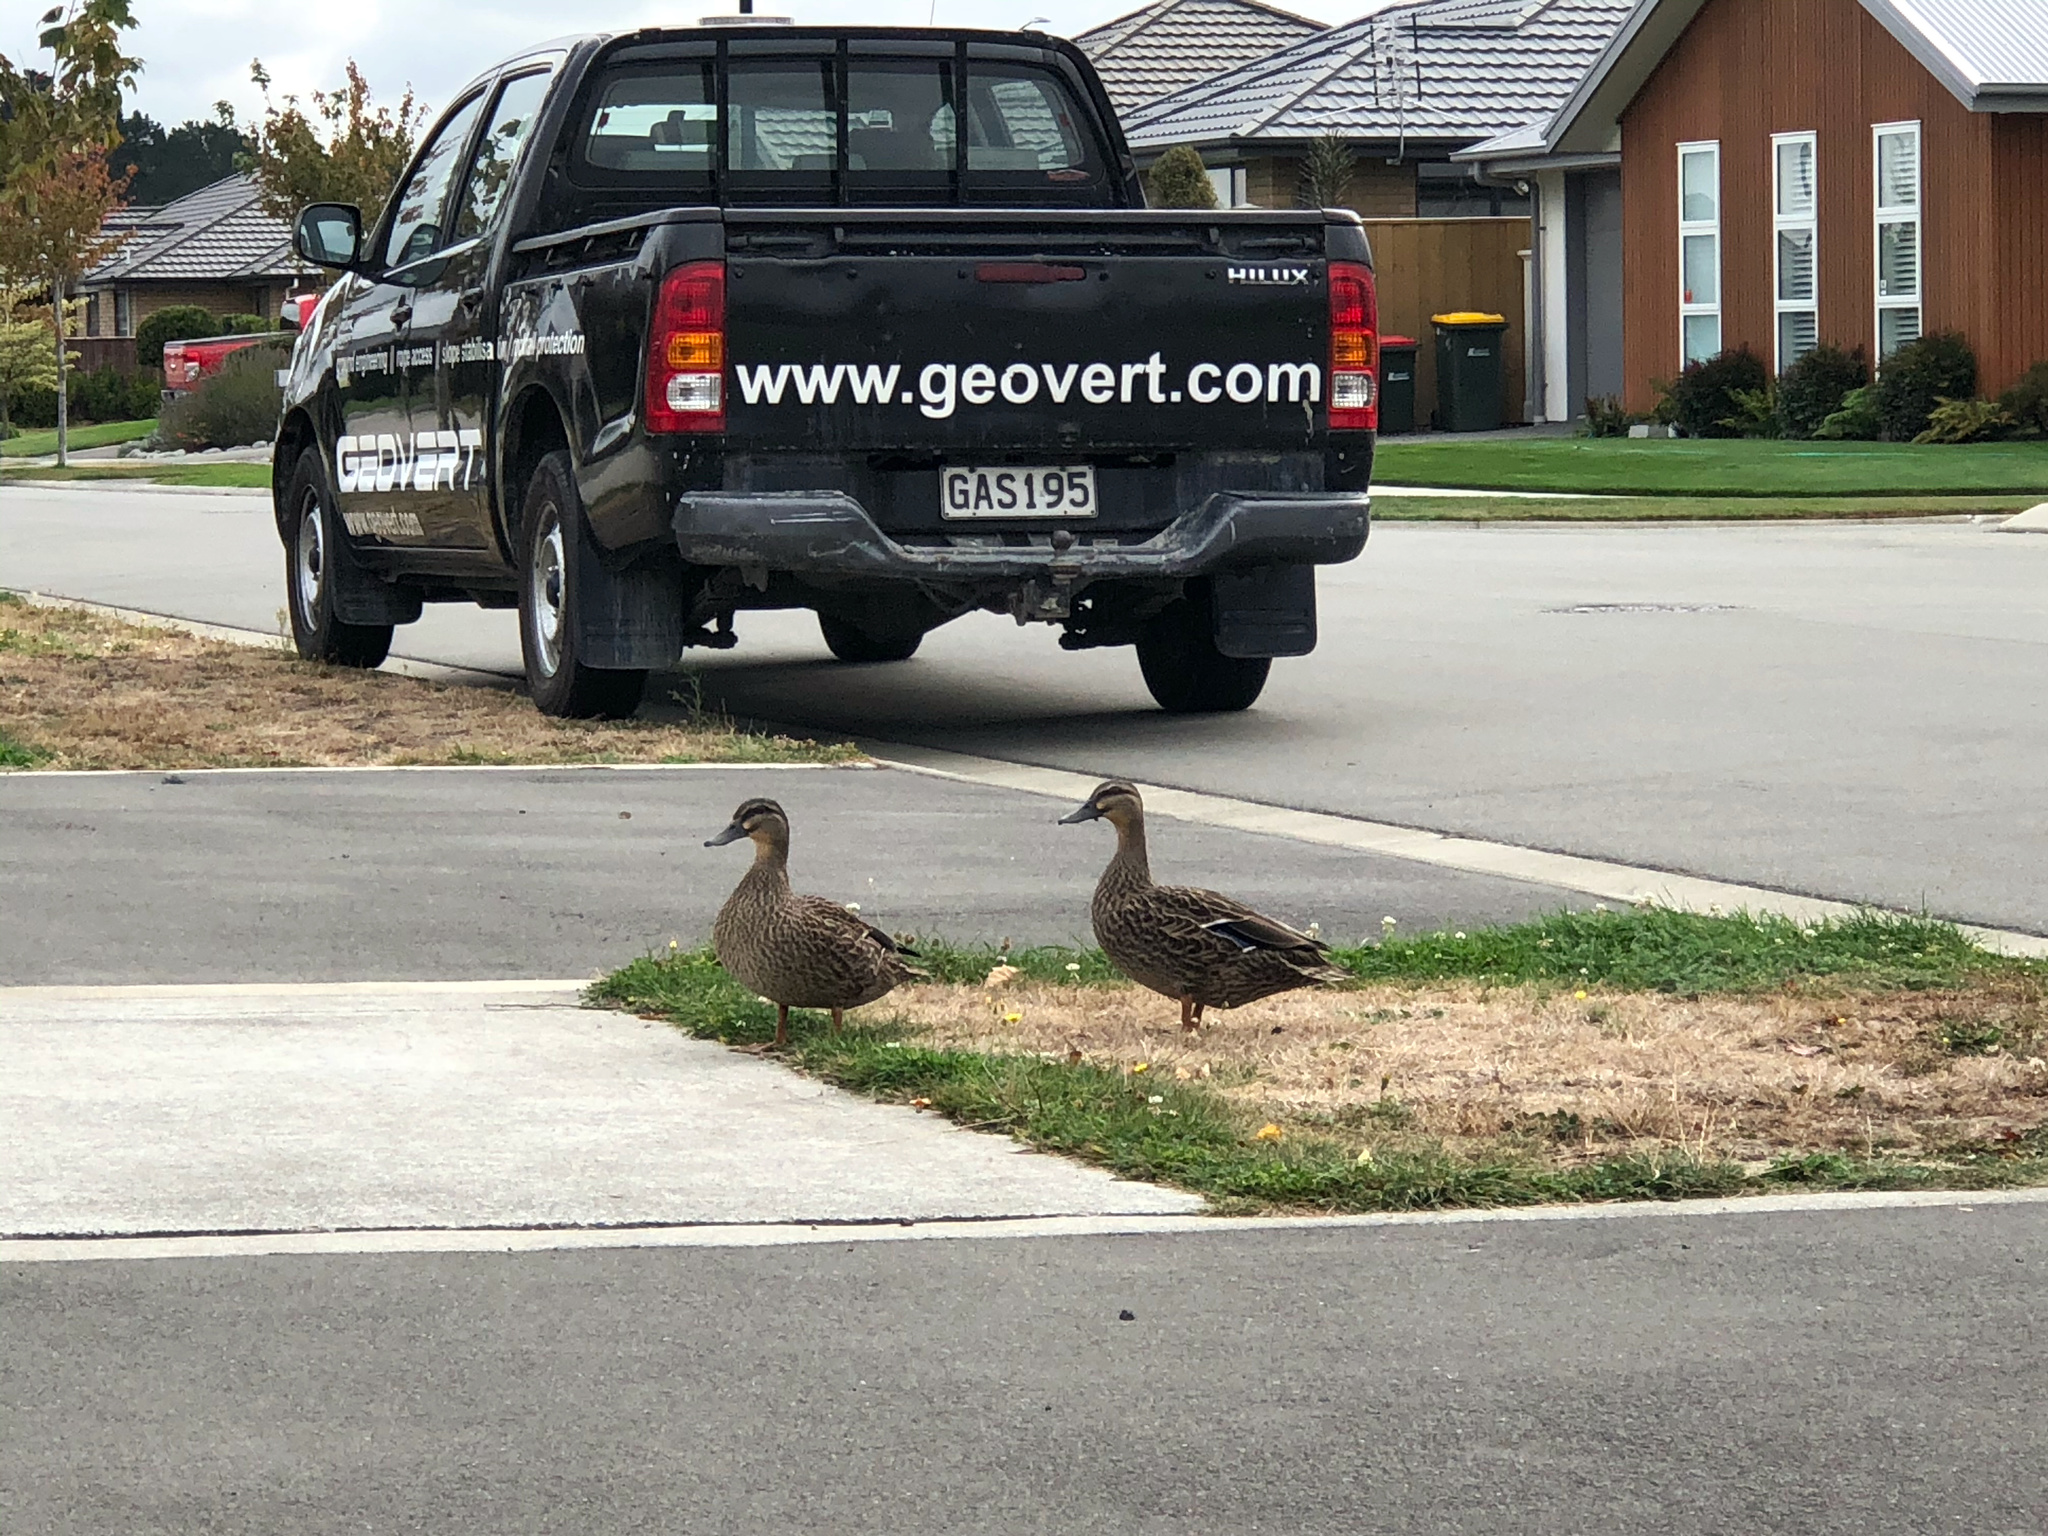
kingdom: Animalia
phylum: Chordata
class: Aves
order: Anseriformes
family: Anatidae
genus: Anas
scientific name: Anas platyrhynchos
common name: Mallard
